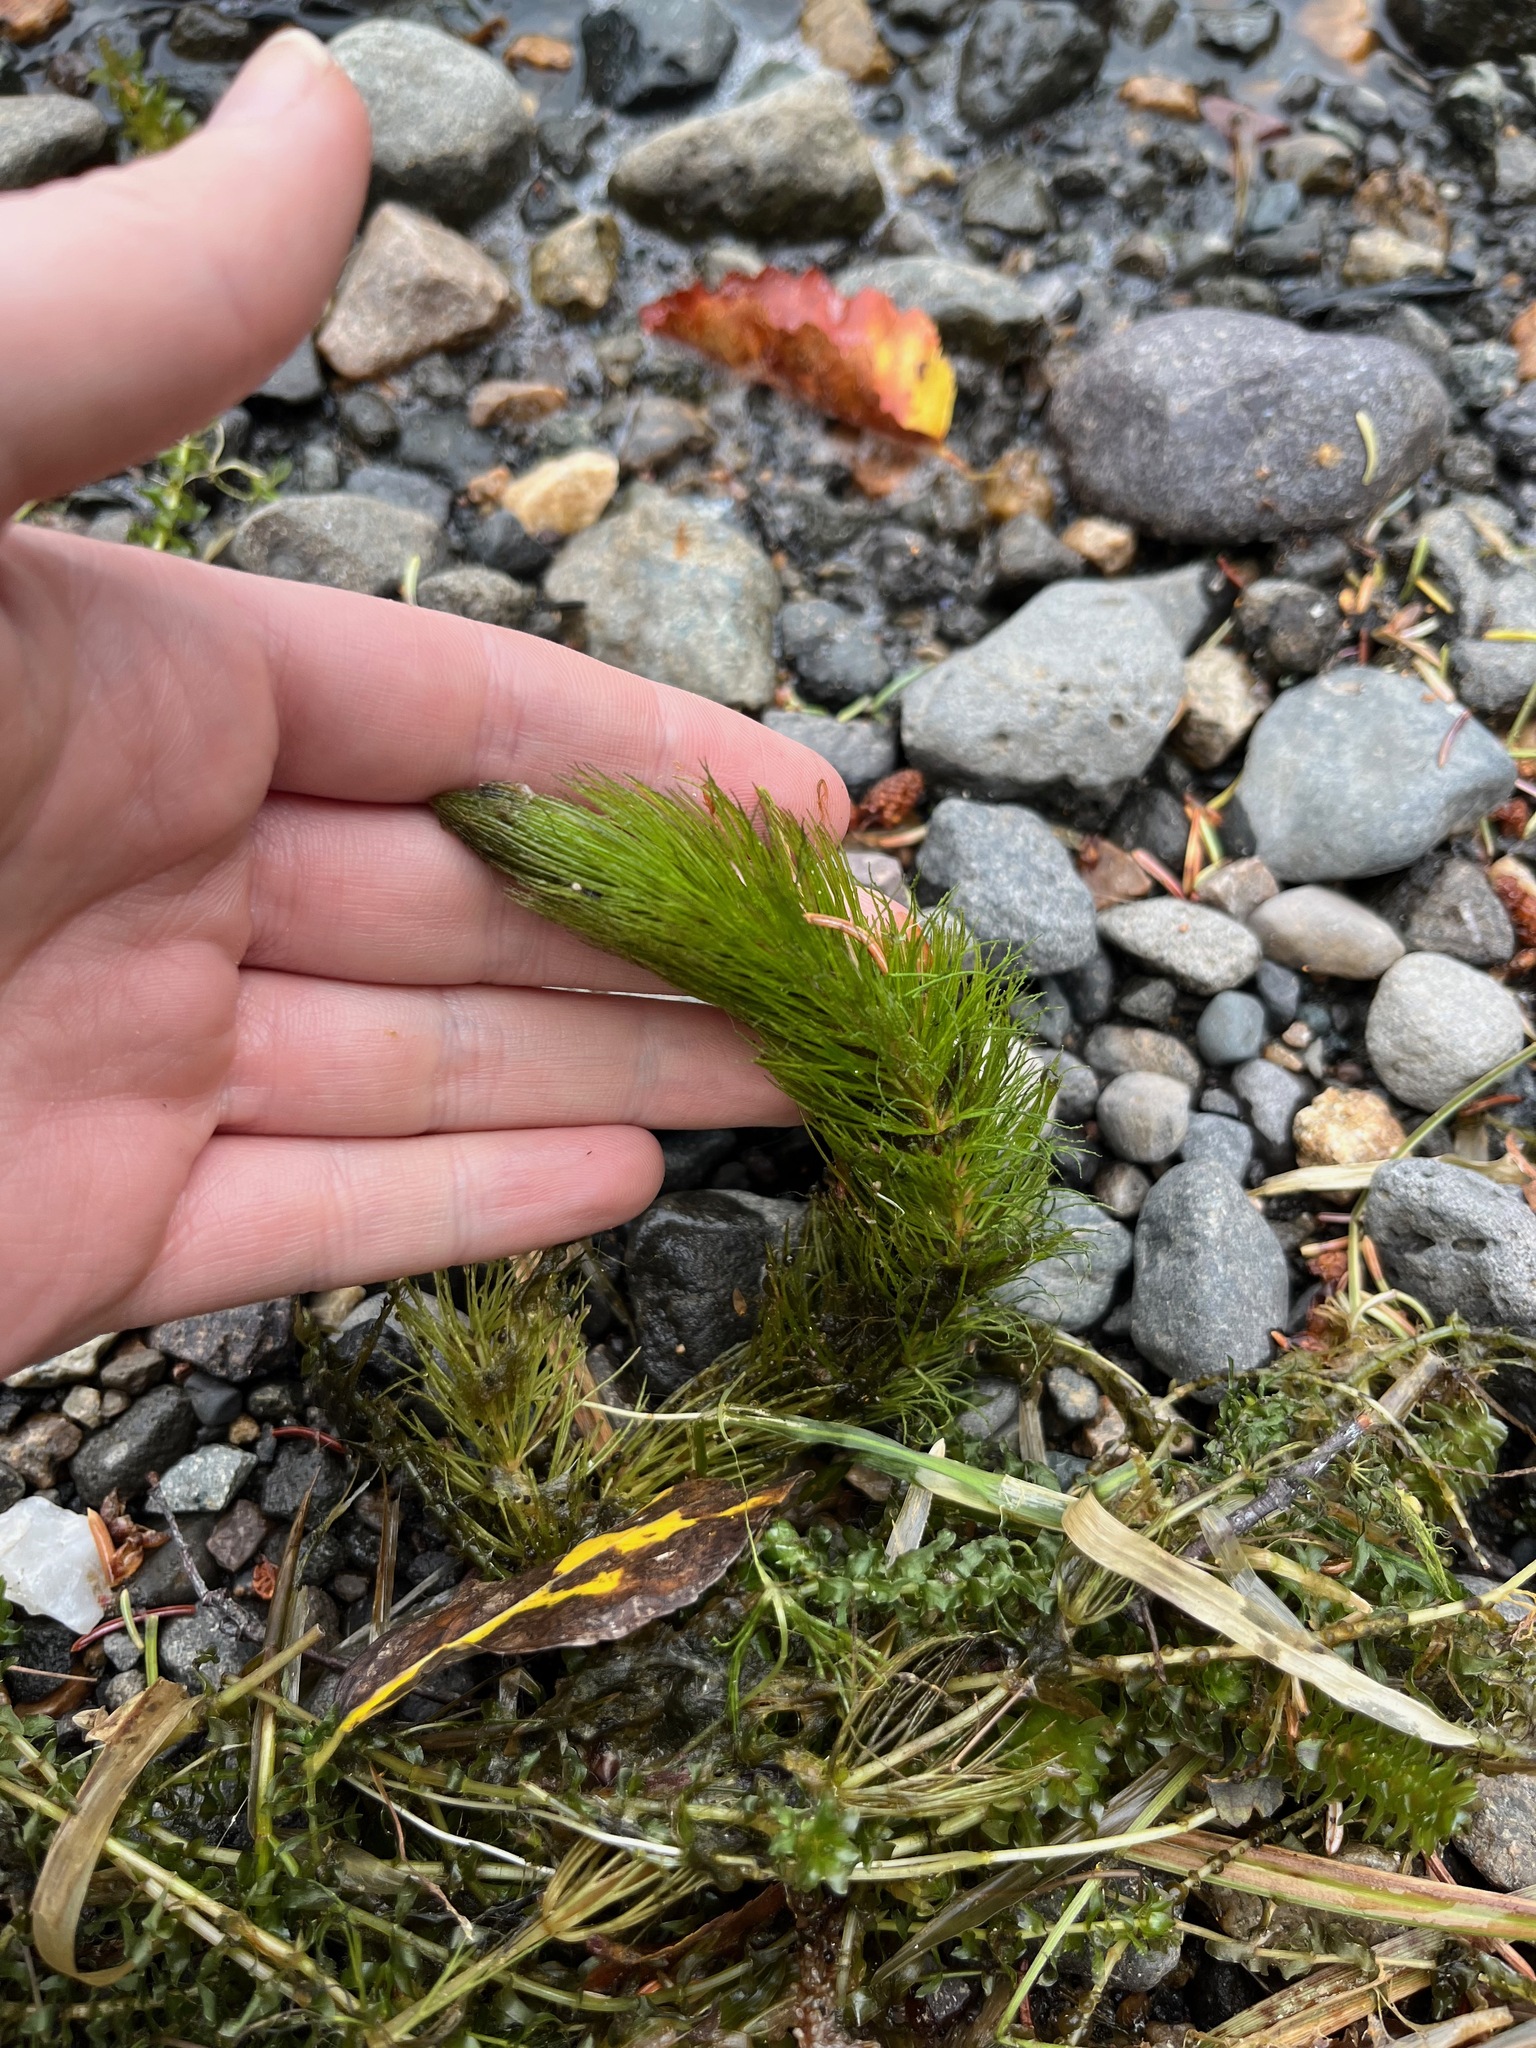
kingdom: Plantae
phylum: Tracheophyta
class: Magnoliopsida
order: Ceratophyllales
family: Ceratophyllaceae
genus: Ceratophyllum
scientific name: Ceratophyllum demersum
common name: Rigid hornwort
